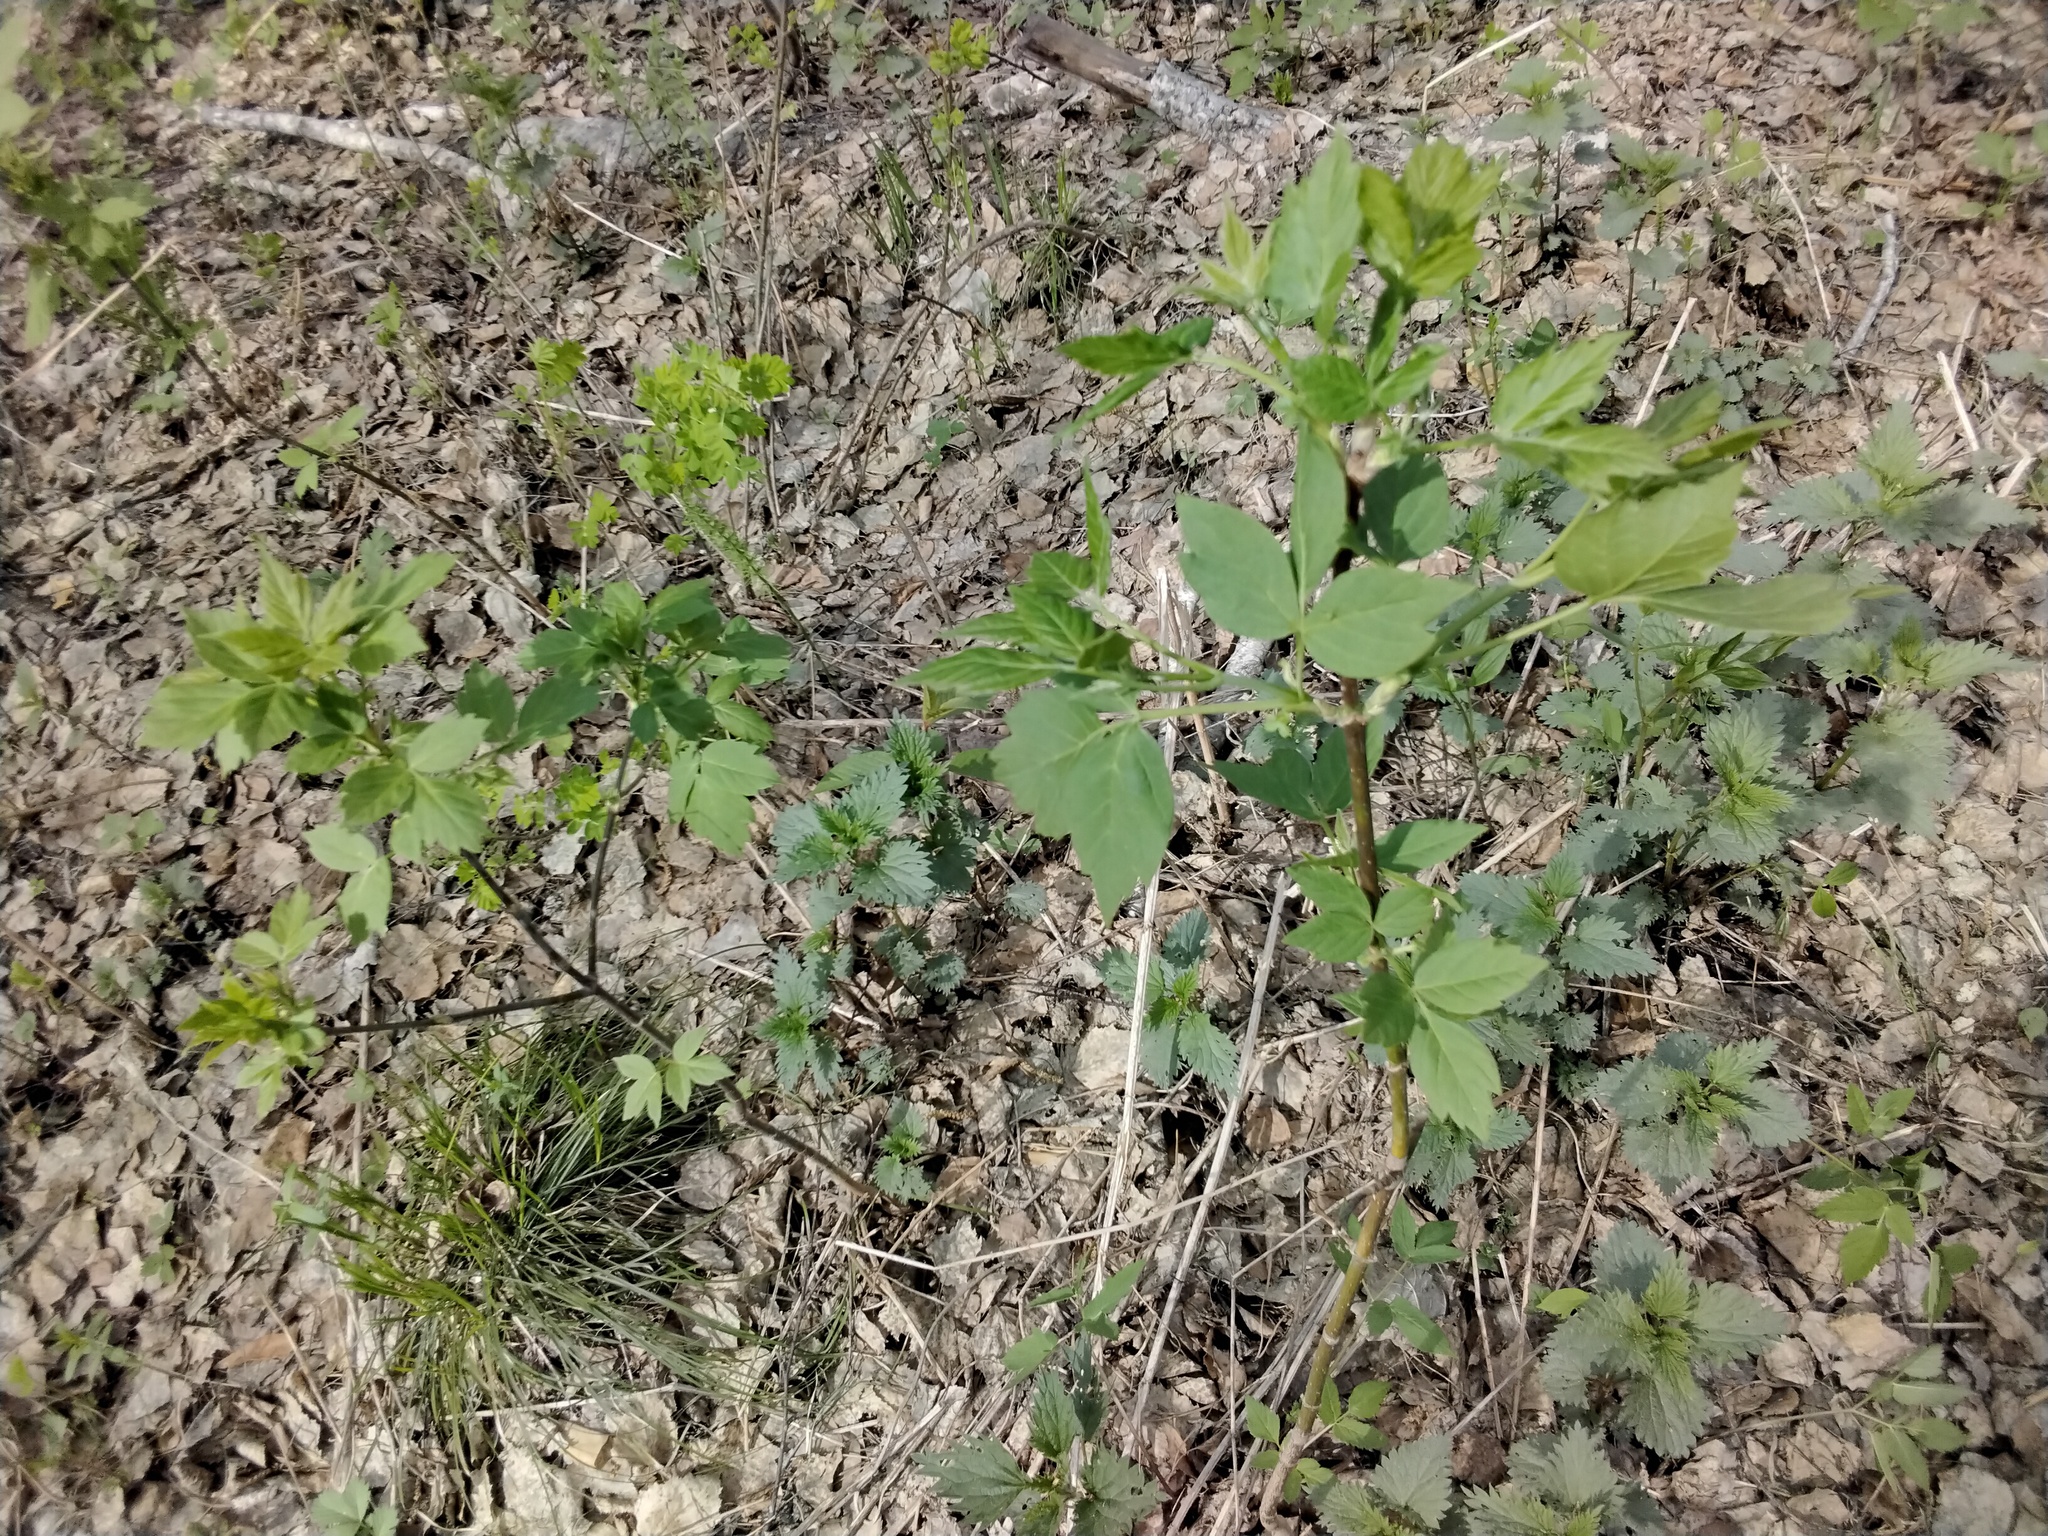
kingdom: Plantae
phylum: Tracheophyta
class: Magnoliopsida
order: Sapindales
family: Sapindaceae
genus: Acer
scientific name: Acer negundo
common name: Ashleaf maple
